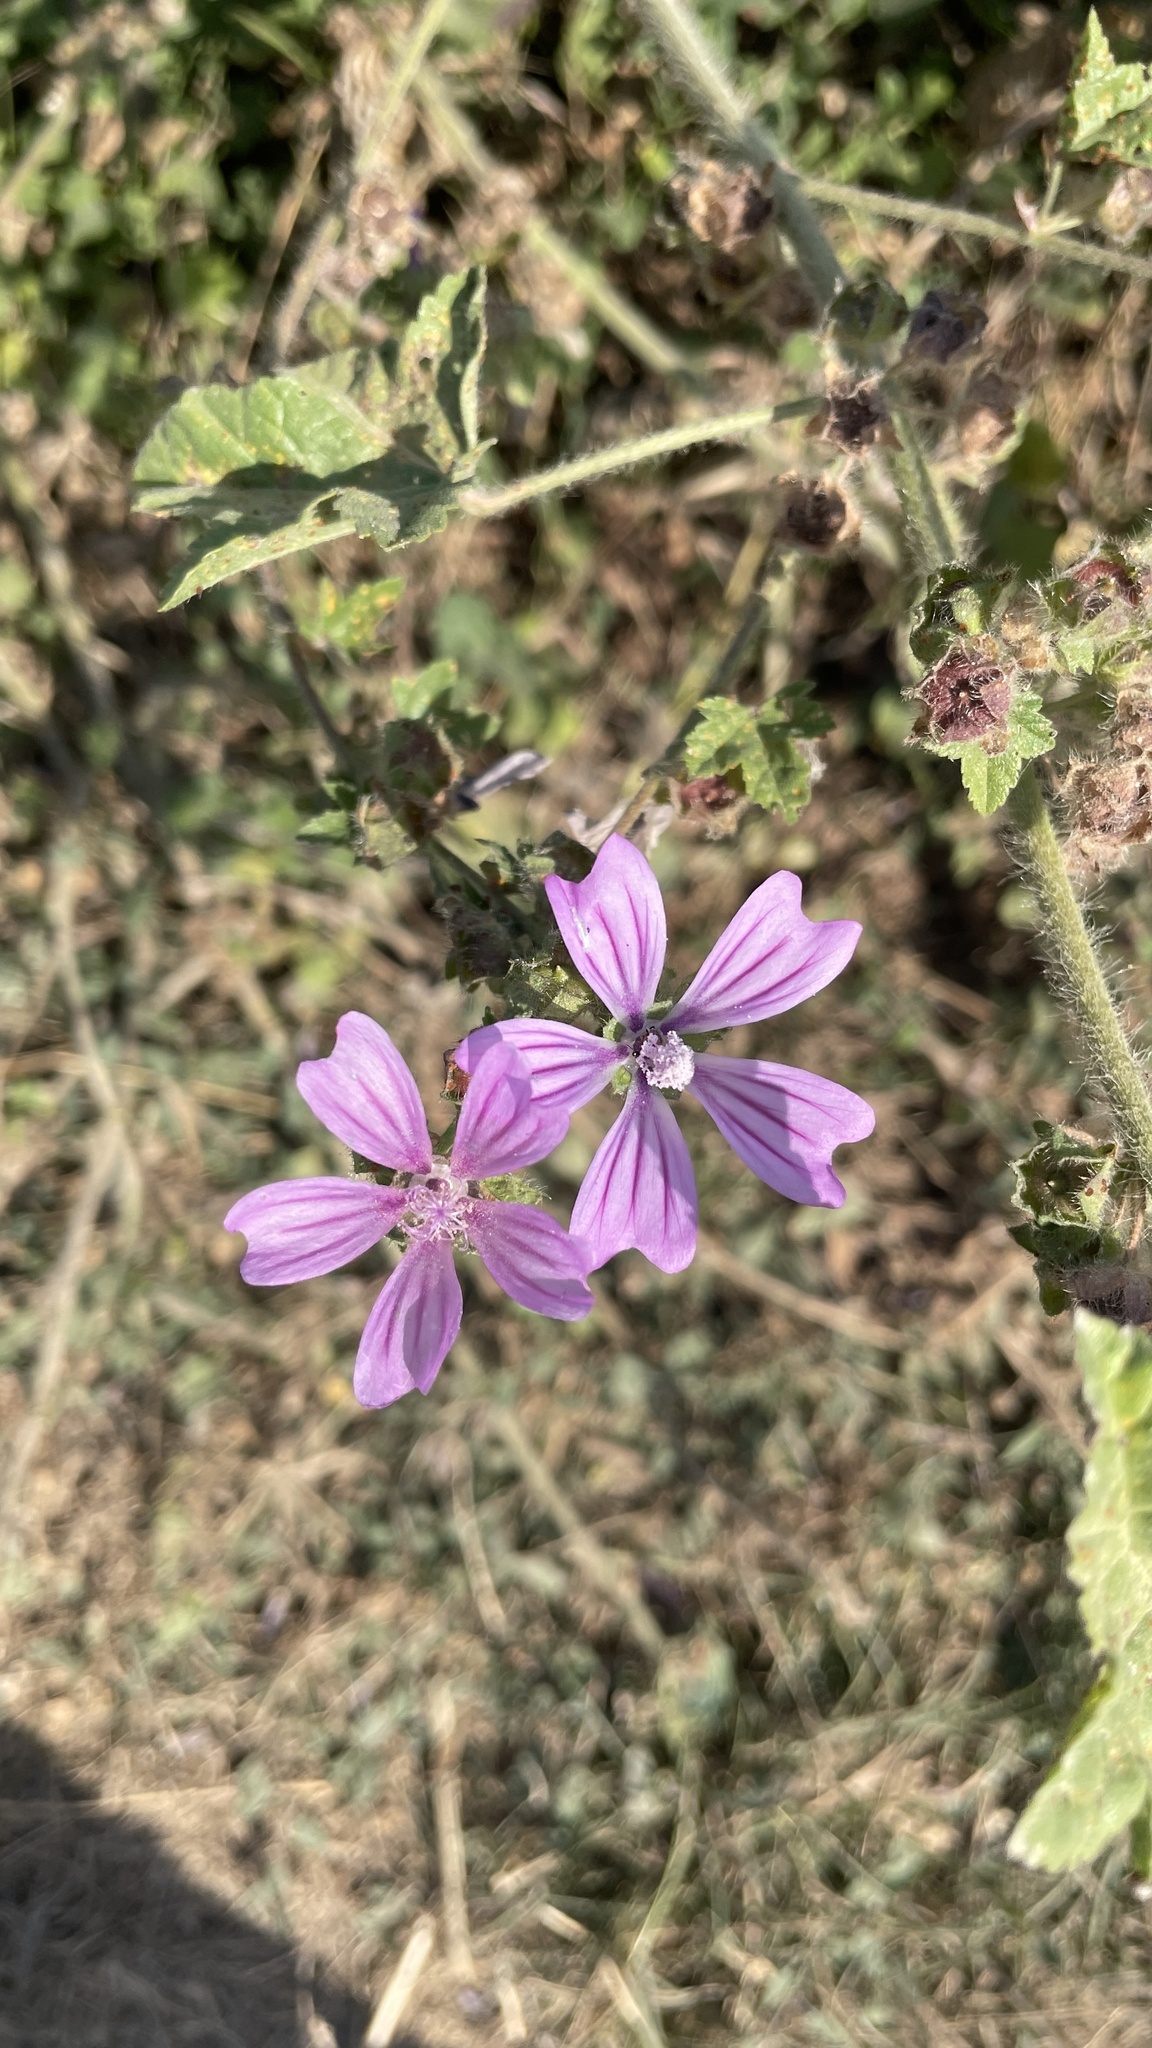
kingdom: Plantae
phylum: Tracheophyta
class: Magnoliopsida
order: Malvales
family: Malvaceae
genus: Malva
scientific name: Malva sylvestris
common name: Common mallow
